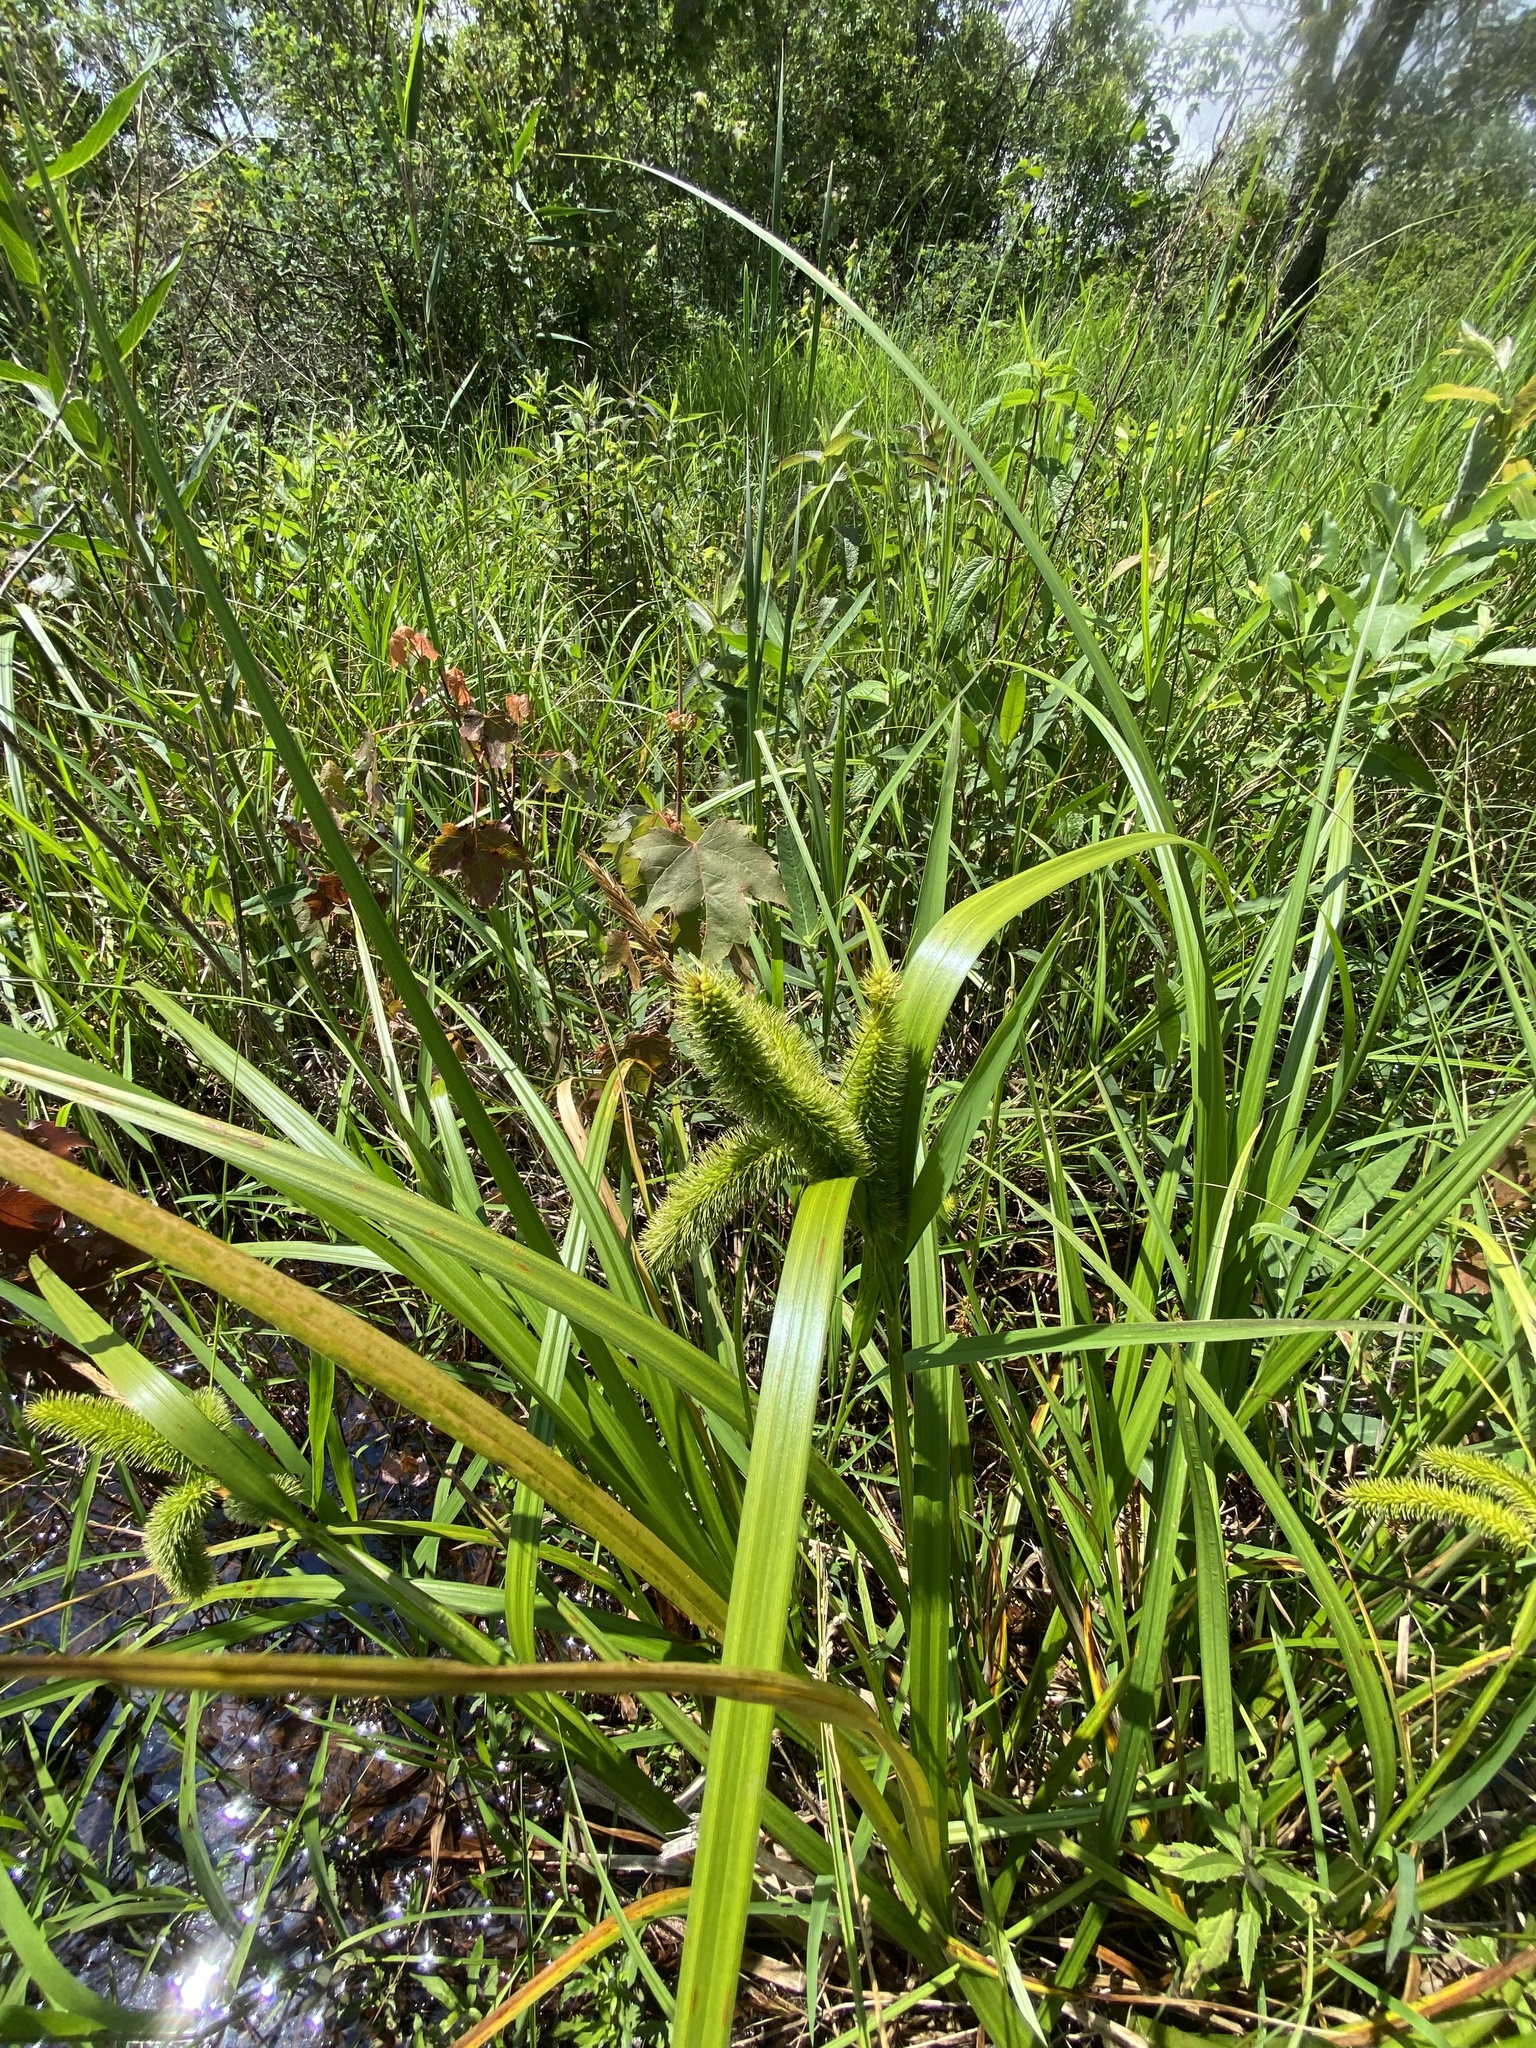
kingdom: Plantae
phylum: Tracheophyta
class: Liliopsida
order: Poales
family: Cyperaceae
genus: Carex
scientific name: Carex comosa
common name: Bristly sedge
